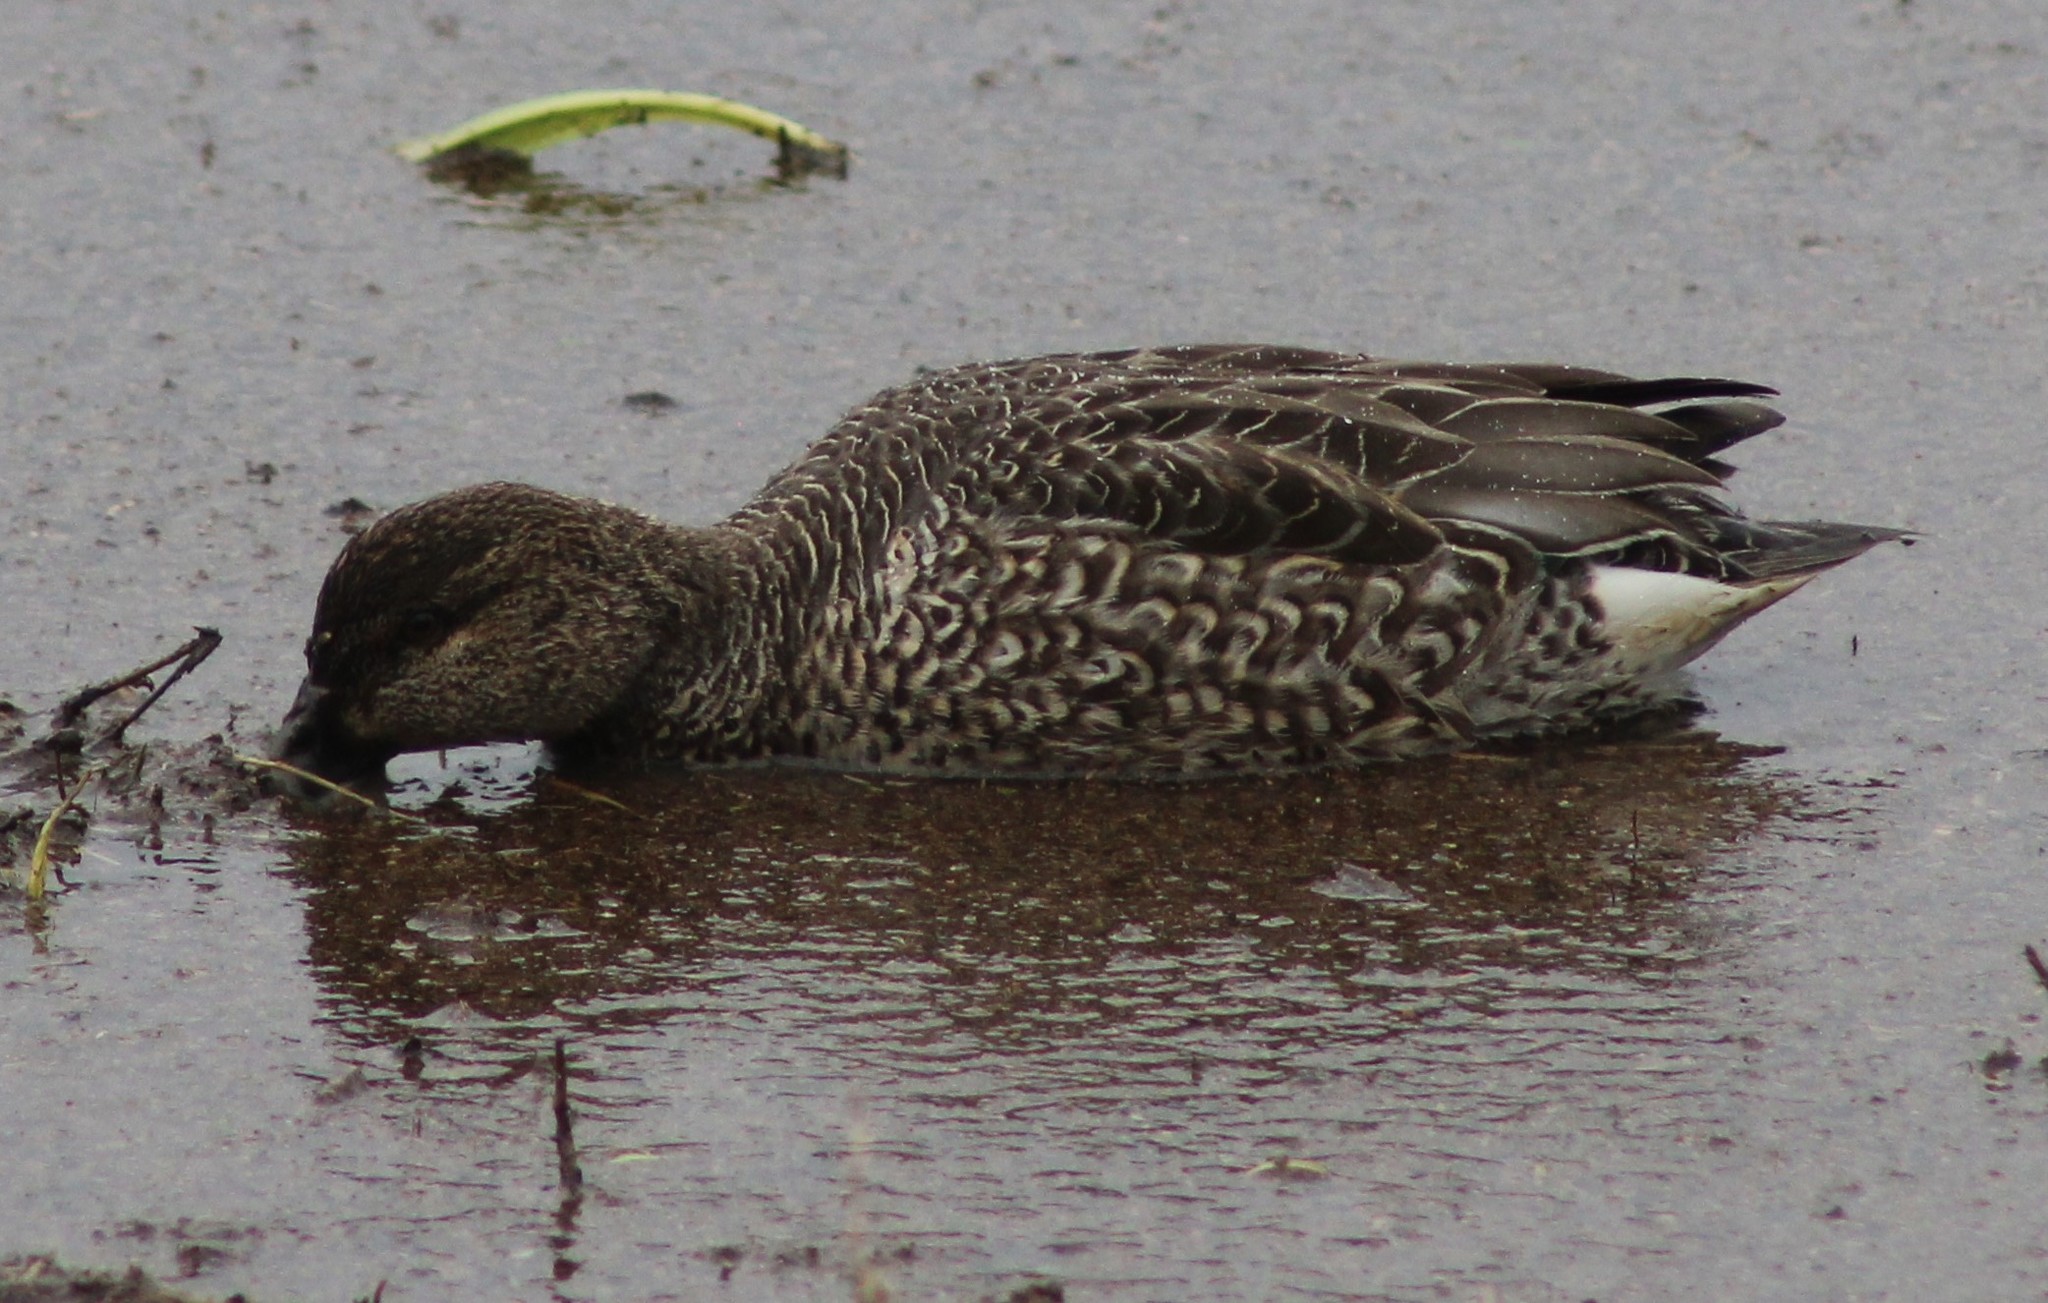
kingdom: Animalia
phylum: Chordata
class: Aves
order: Anseriformes
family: Anatidae
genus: Anas
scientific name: Anas crecca
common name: Eurasian teal
